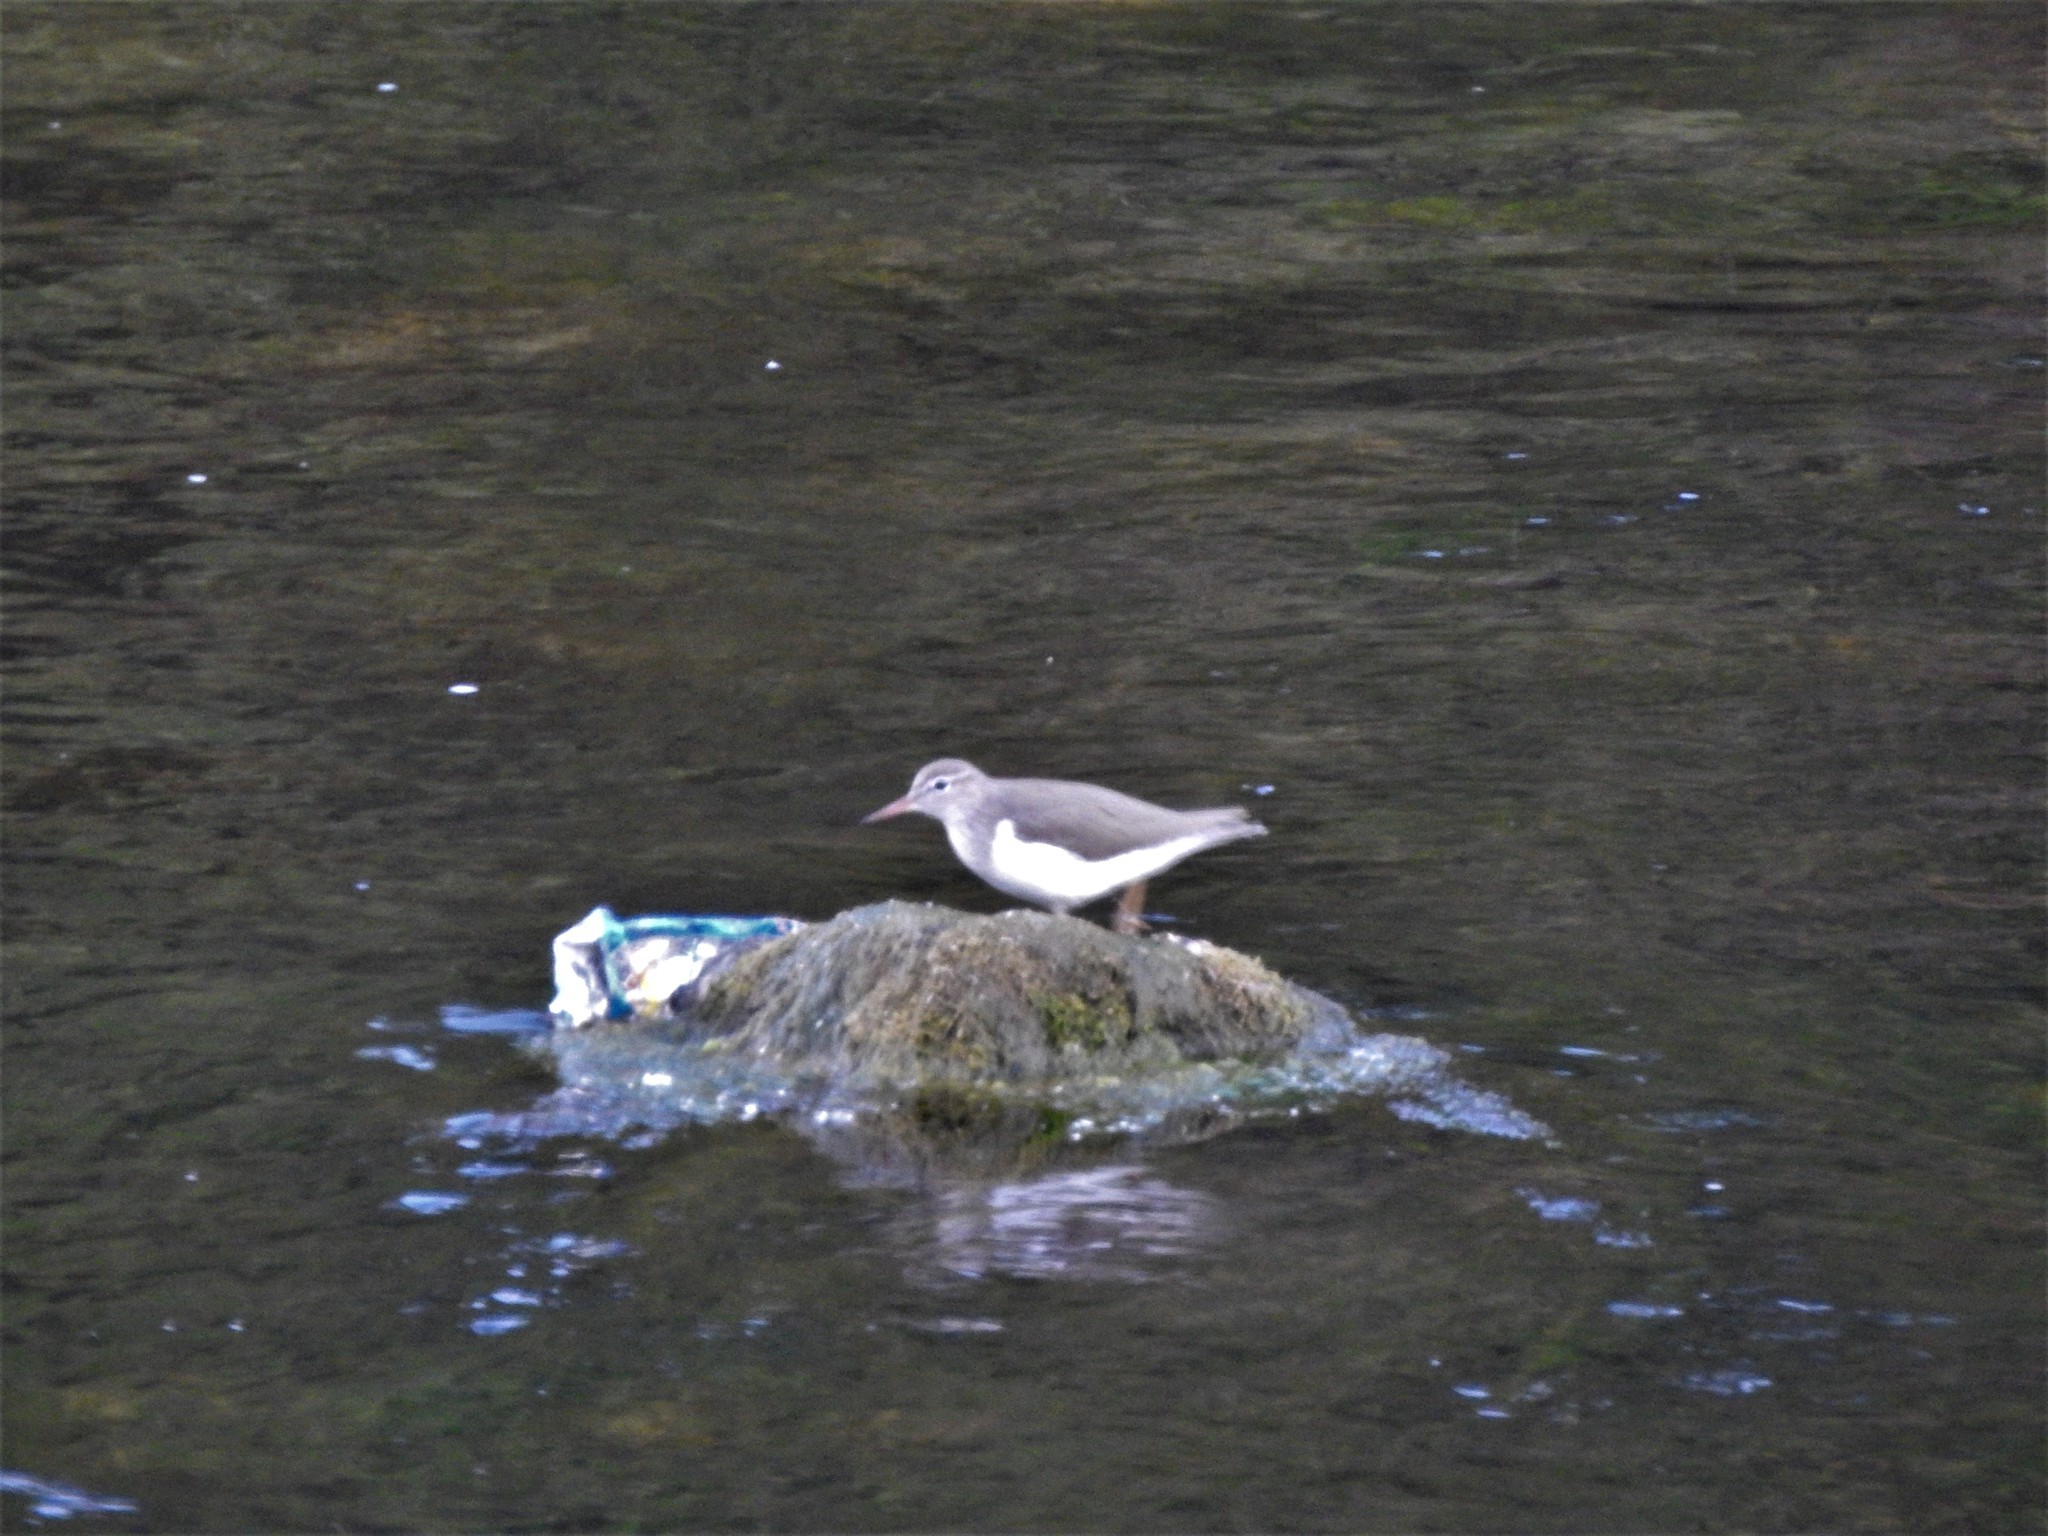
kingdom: Animalia
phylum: Chordata
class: Aves
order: Charadriiformes
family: Scolopacidae
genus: Actitis
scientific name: Actitis macularius
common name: Spotted sandpiper
